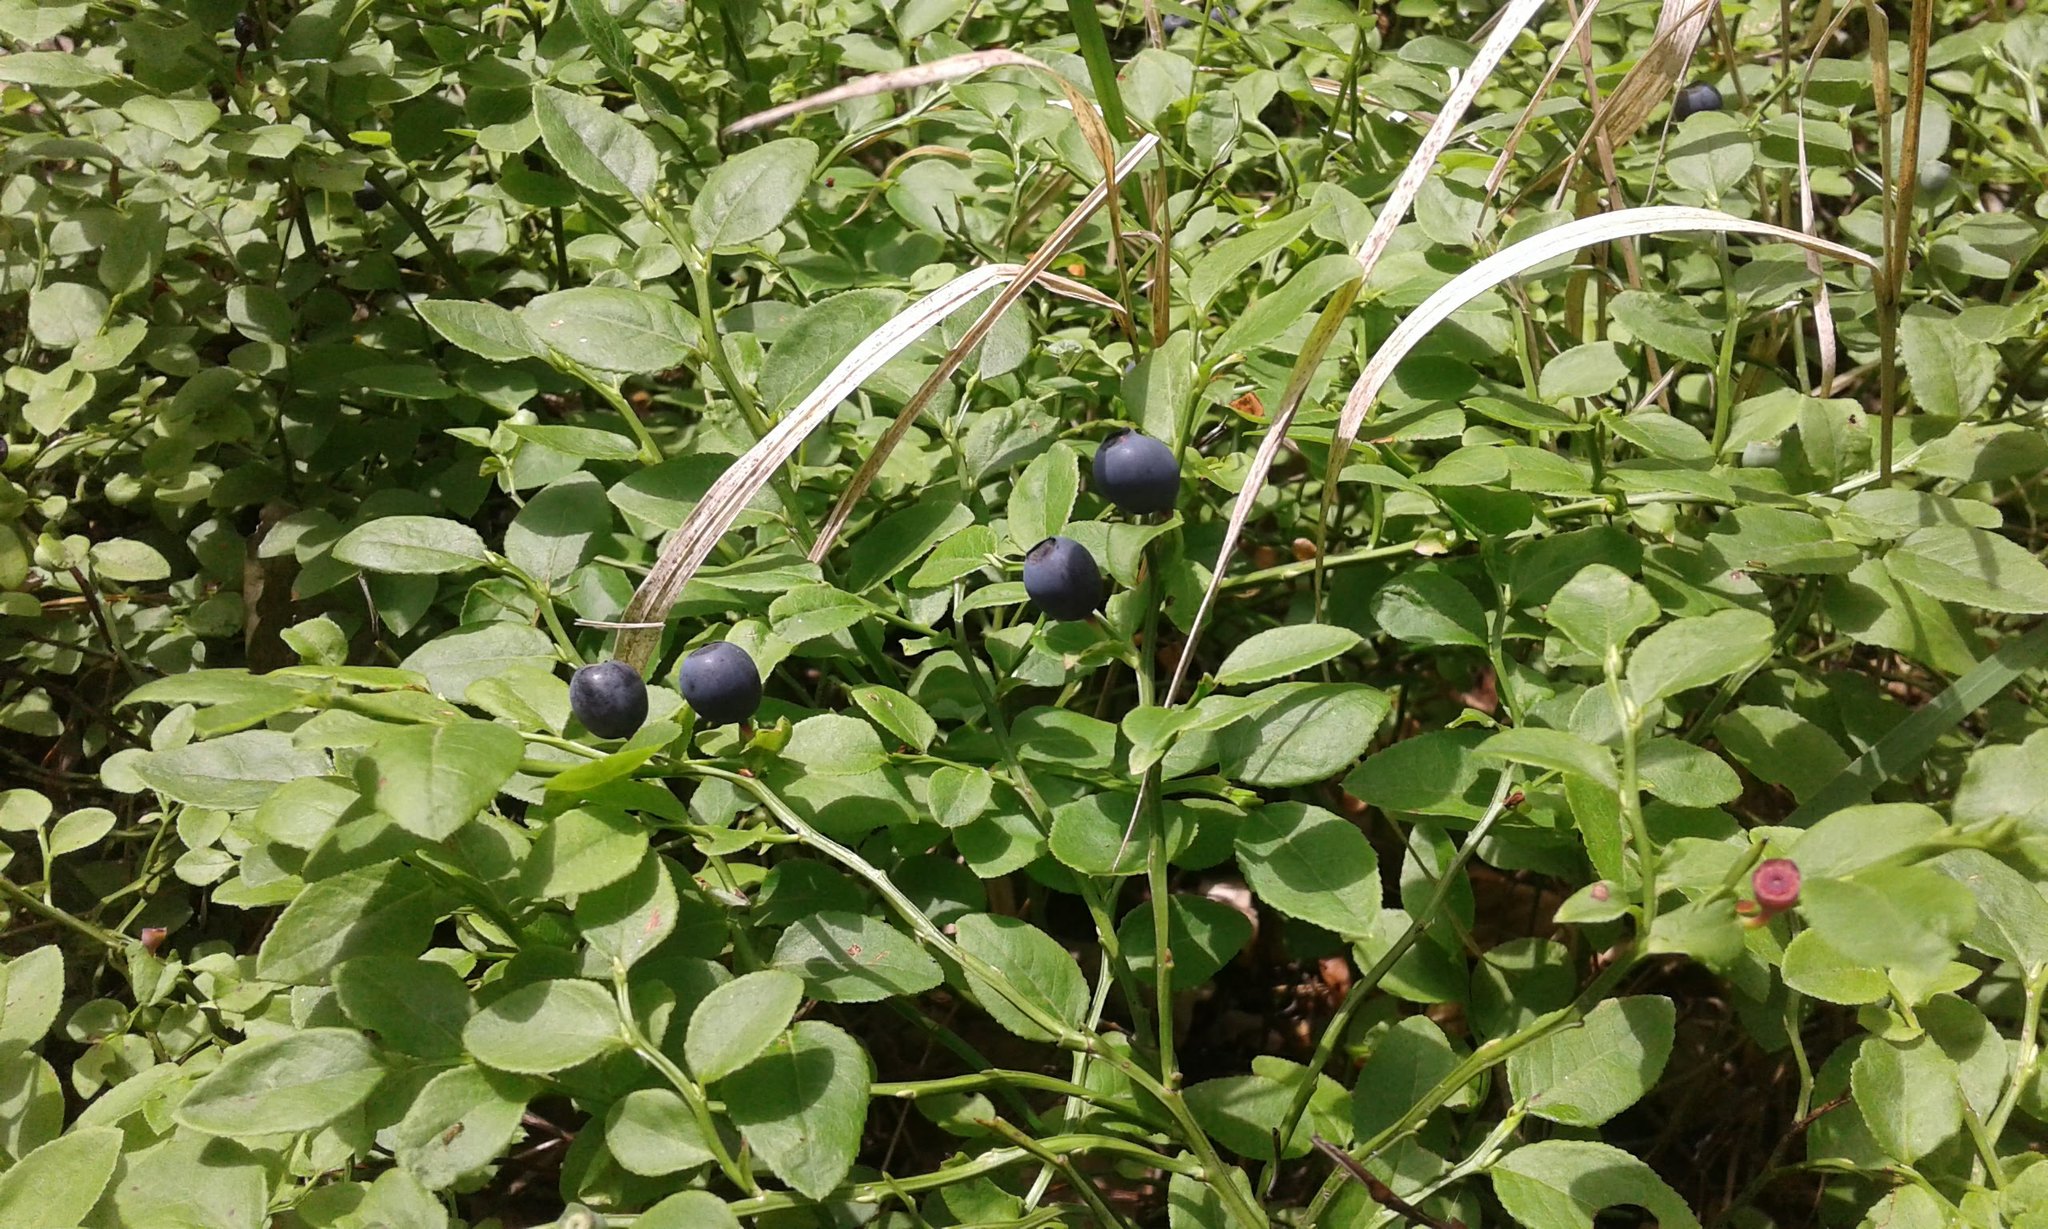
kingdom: Plantae
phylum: Tracheophyta
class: Magnoliopsida
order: Ericales
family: Ericaceae
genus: Vaccinium
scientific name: Vaccinium myrtillus
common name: Bilberry
